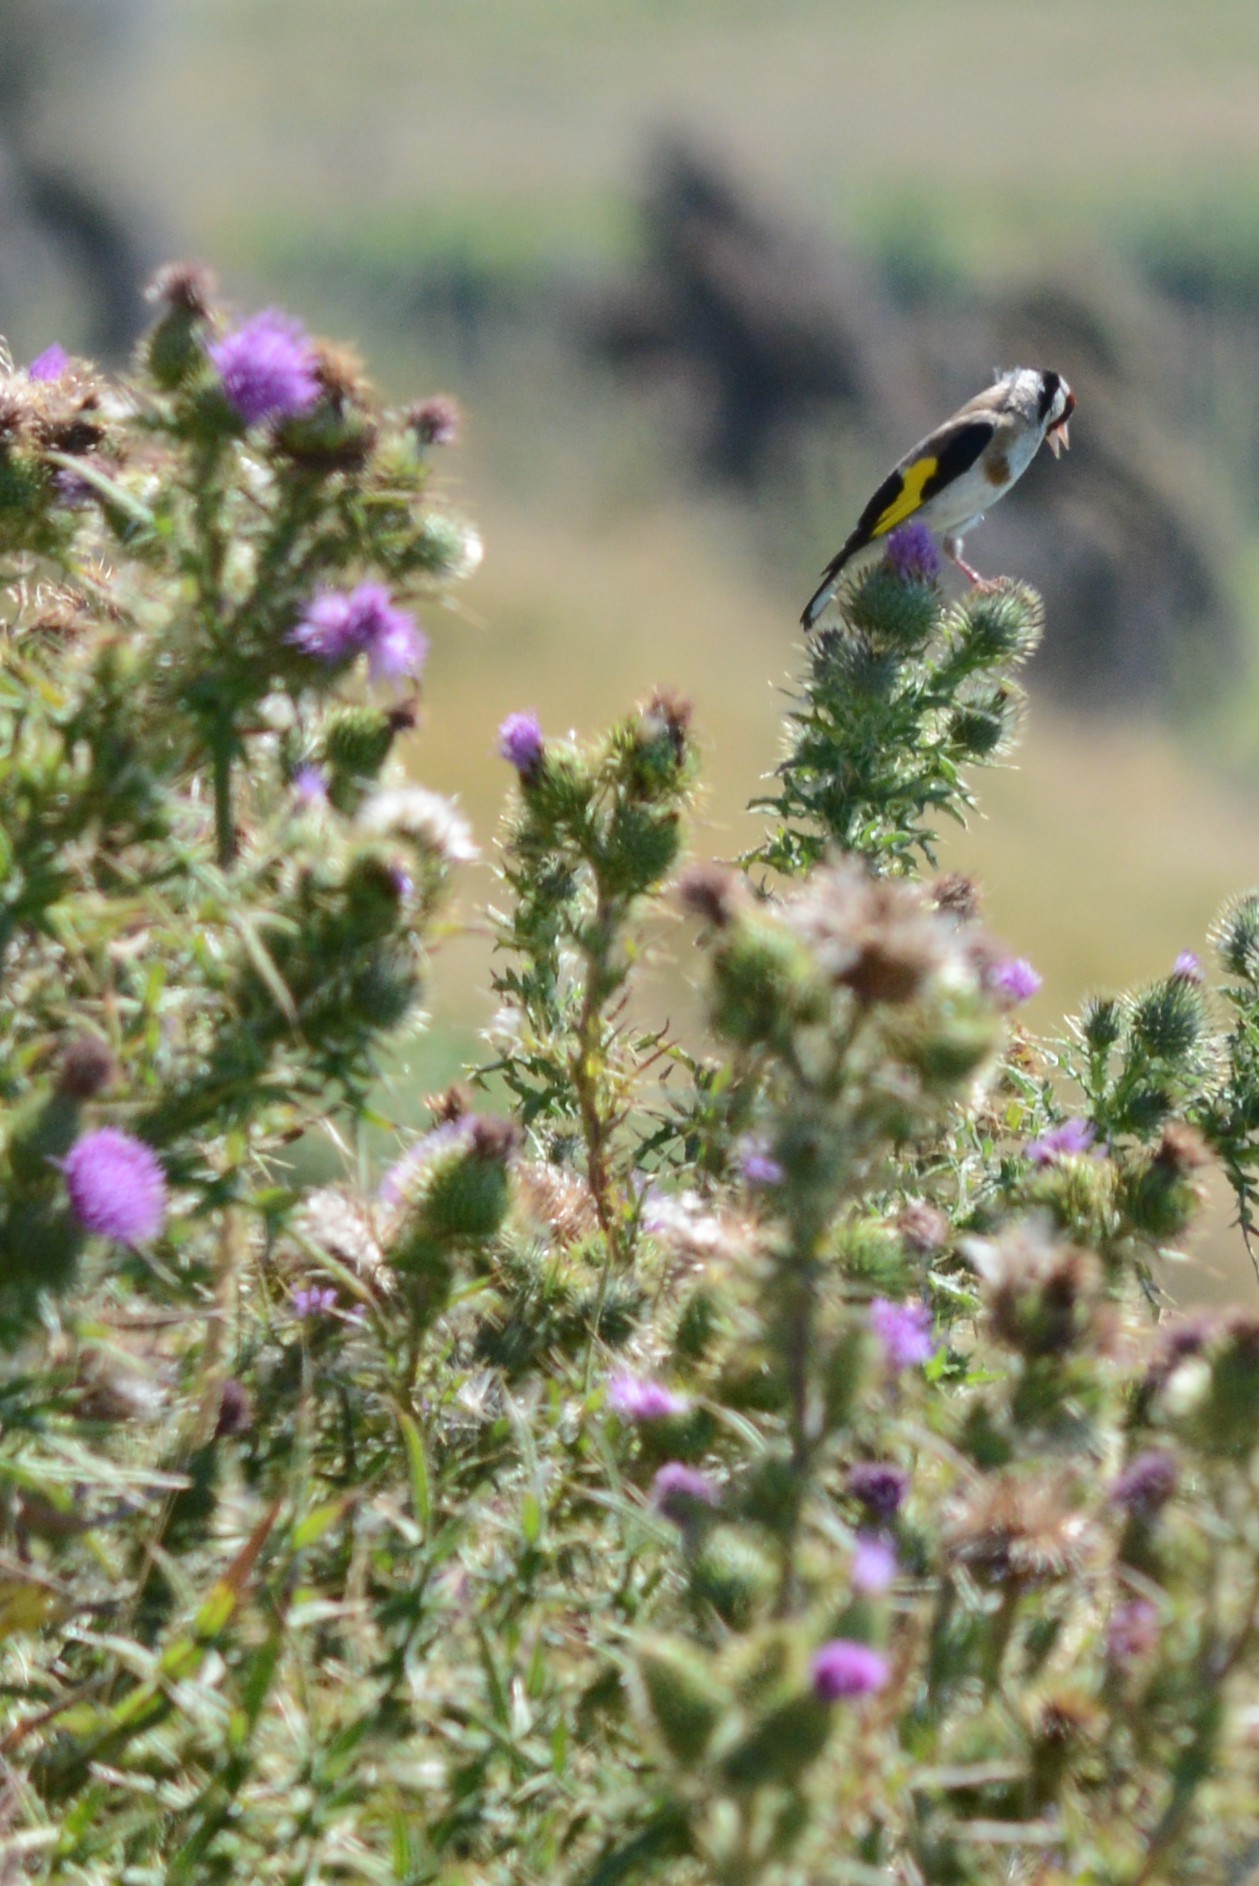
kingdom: Animalia
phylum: Chordata
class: Aves
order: Passeriformes
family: Fringillidae
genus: Carduelis
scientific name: Carduelis carduelis
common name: European goldfinch
